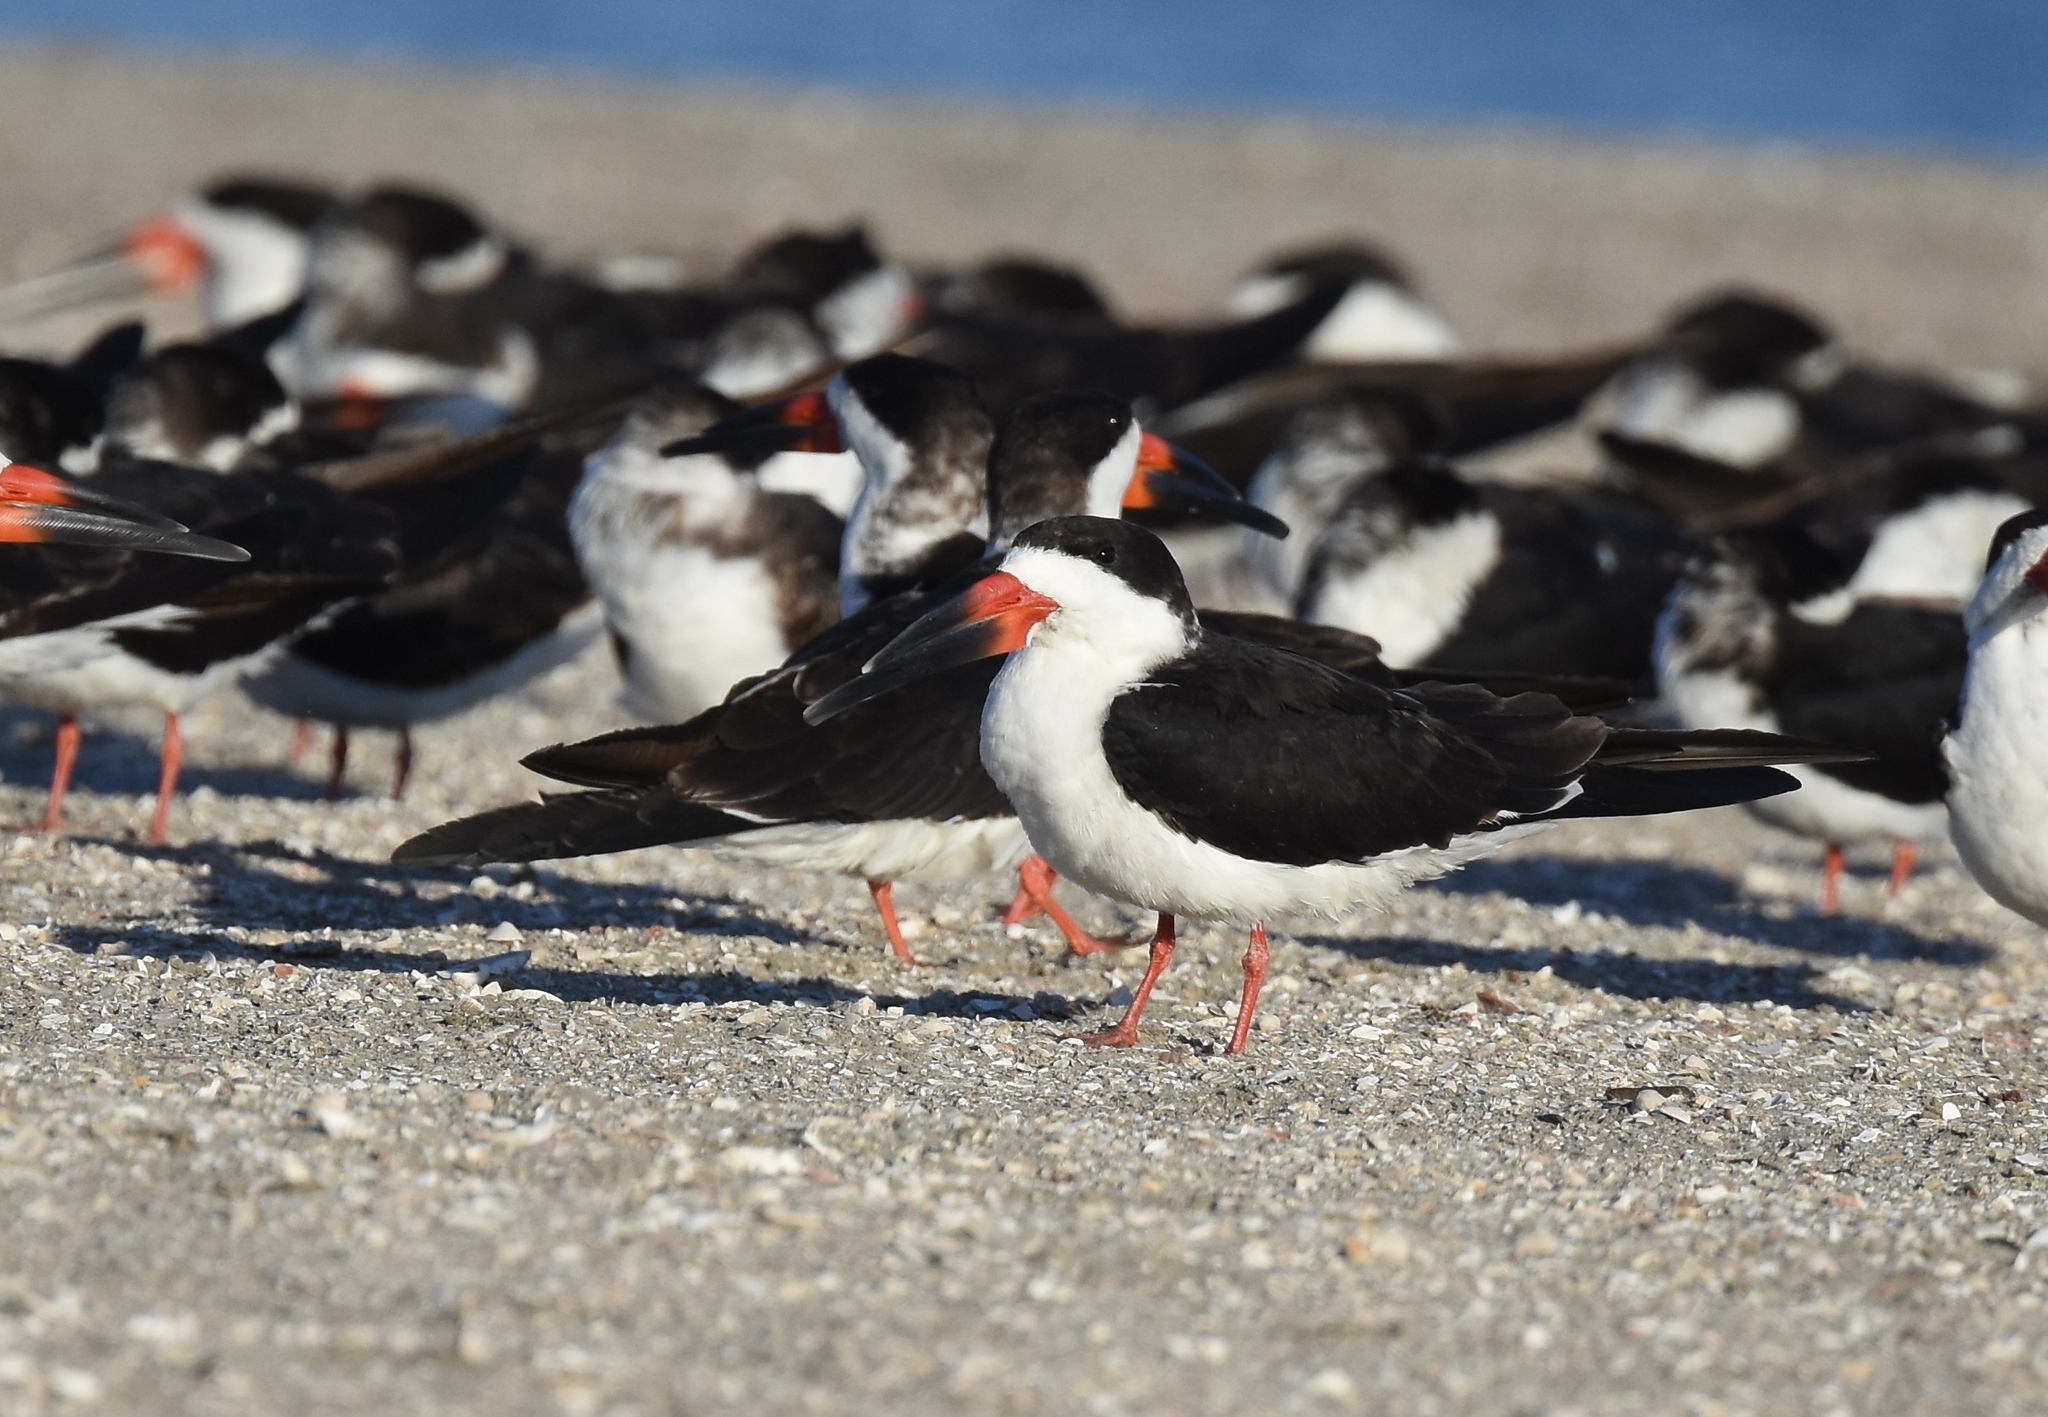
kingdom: Animalia
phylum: Chordata
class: Aves
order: Charadriiformes
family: Laridae
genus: Rynchops
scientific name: Rynchops niger
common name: Black skimmer
